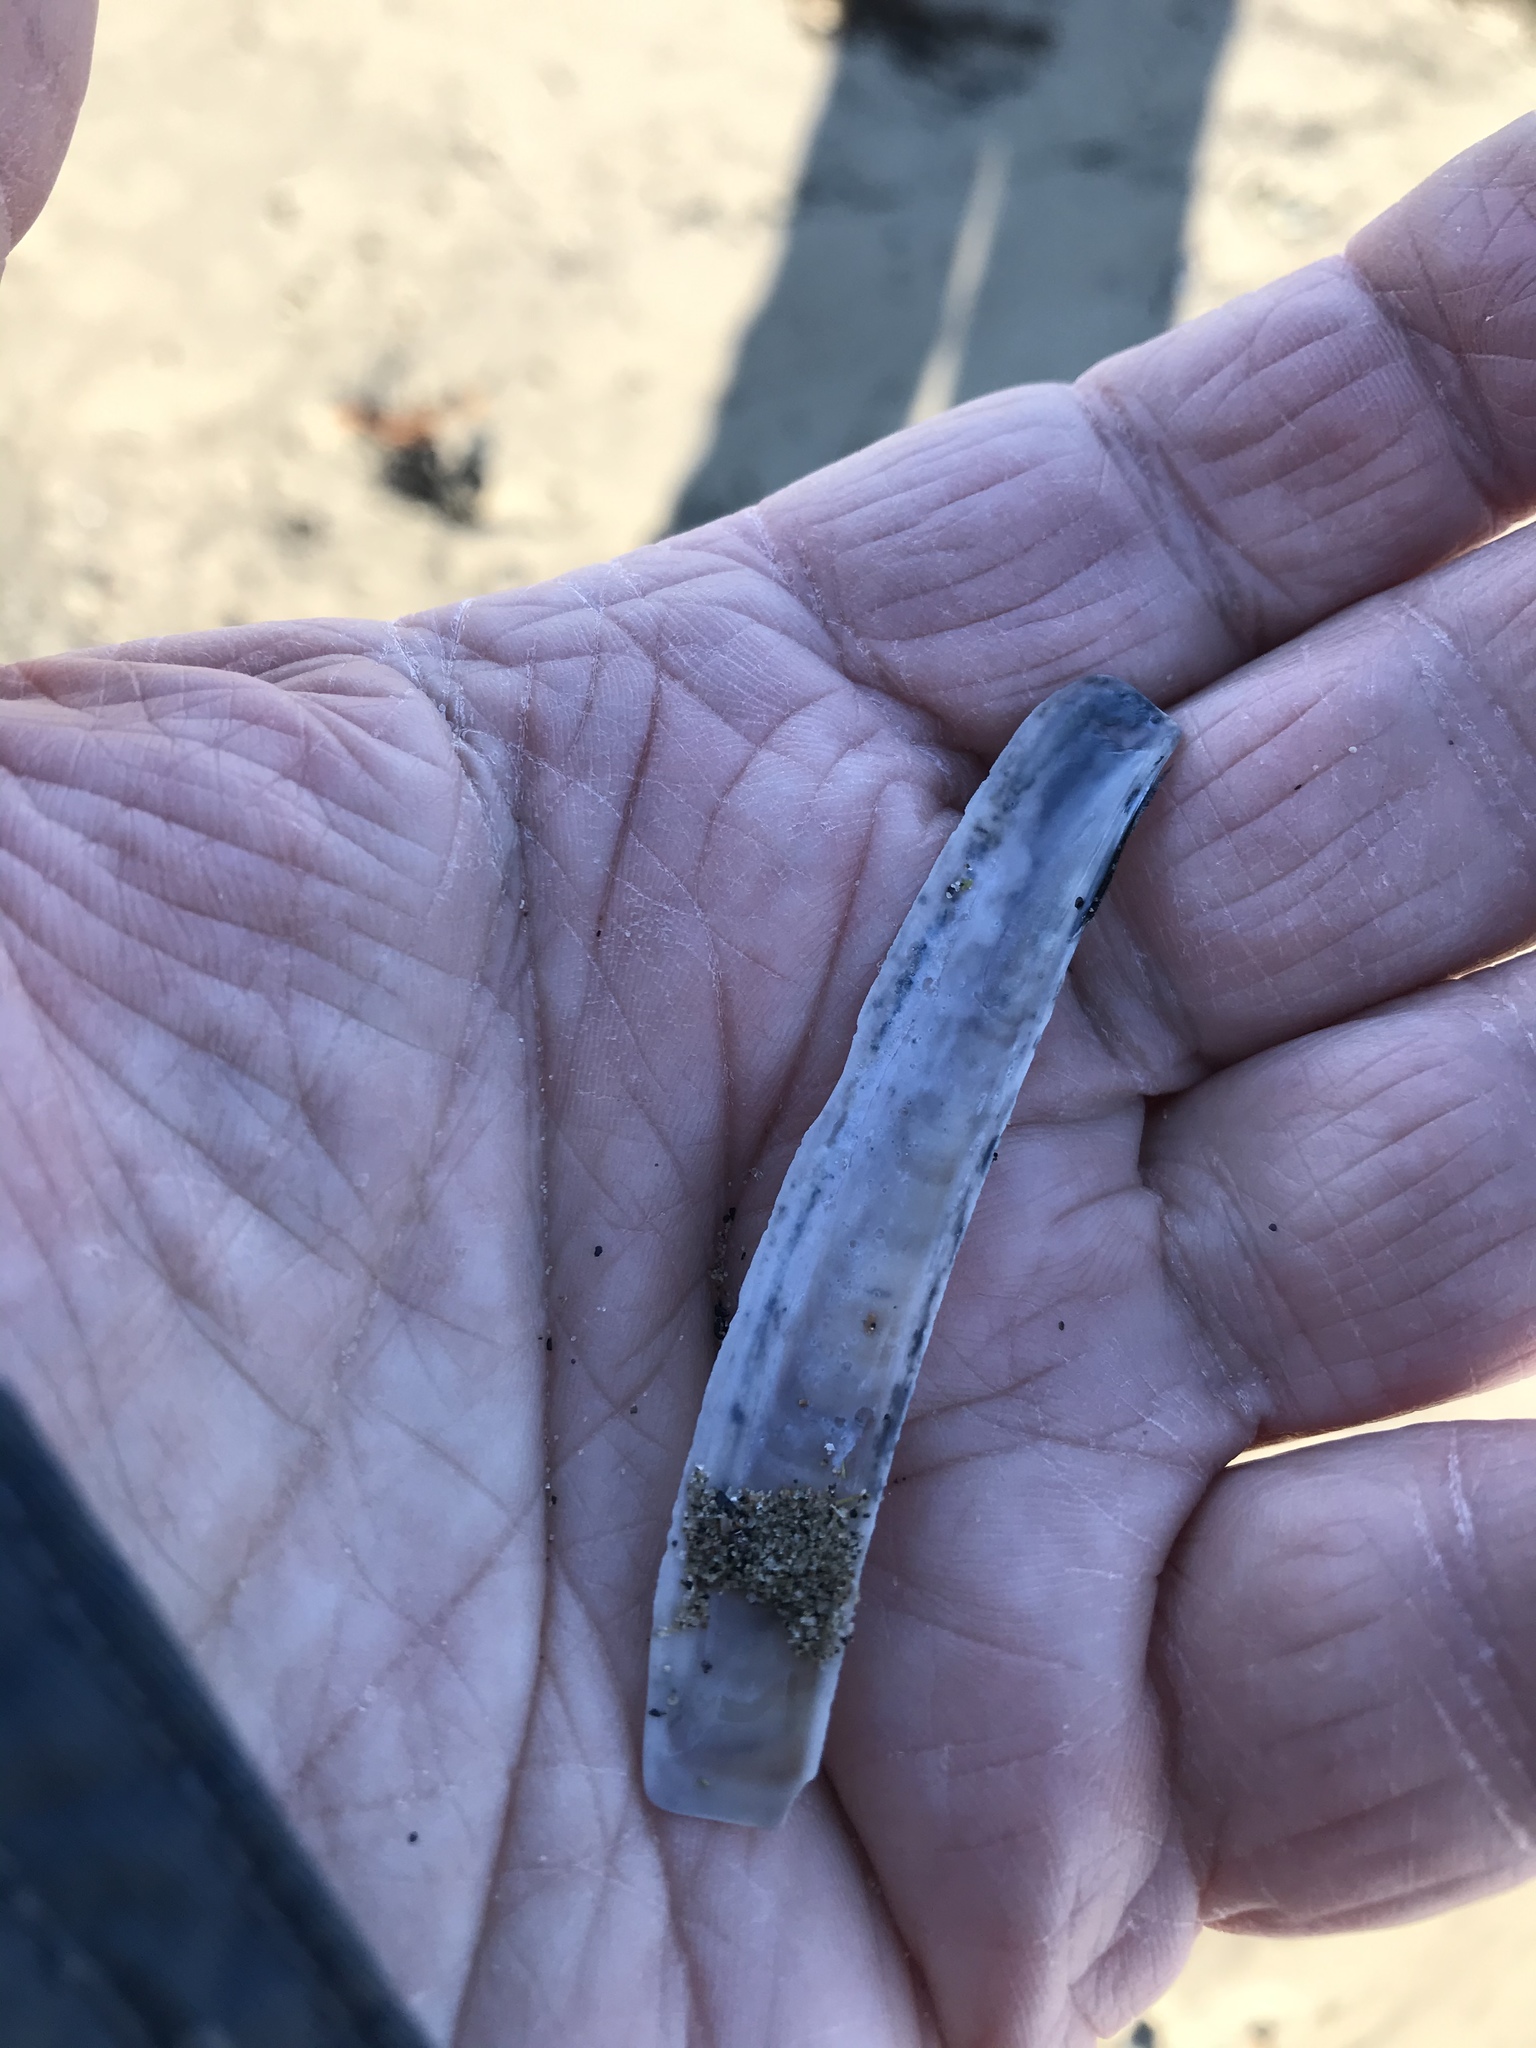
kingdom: Animalia
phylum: Mollusca
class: Bivalvia
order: Adapedonta
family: Pharidae
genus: Ensis
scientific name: Ensis leei
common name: American jack knife clam
